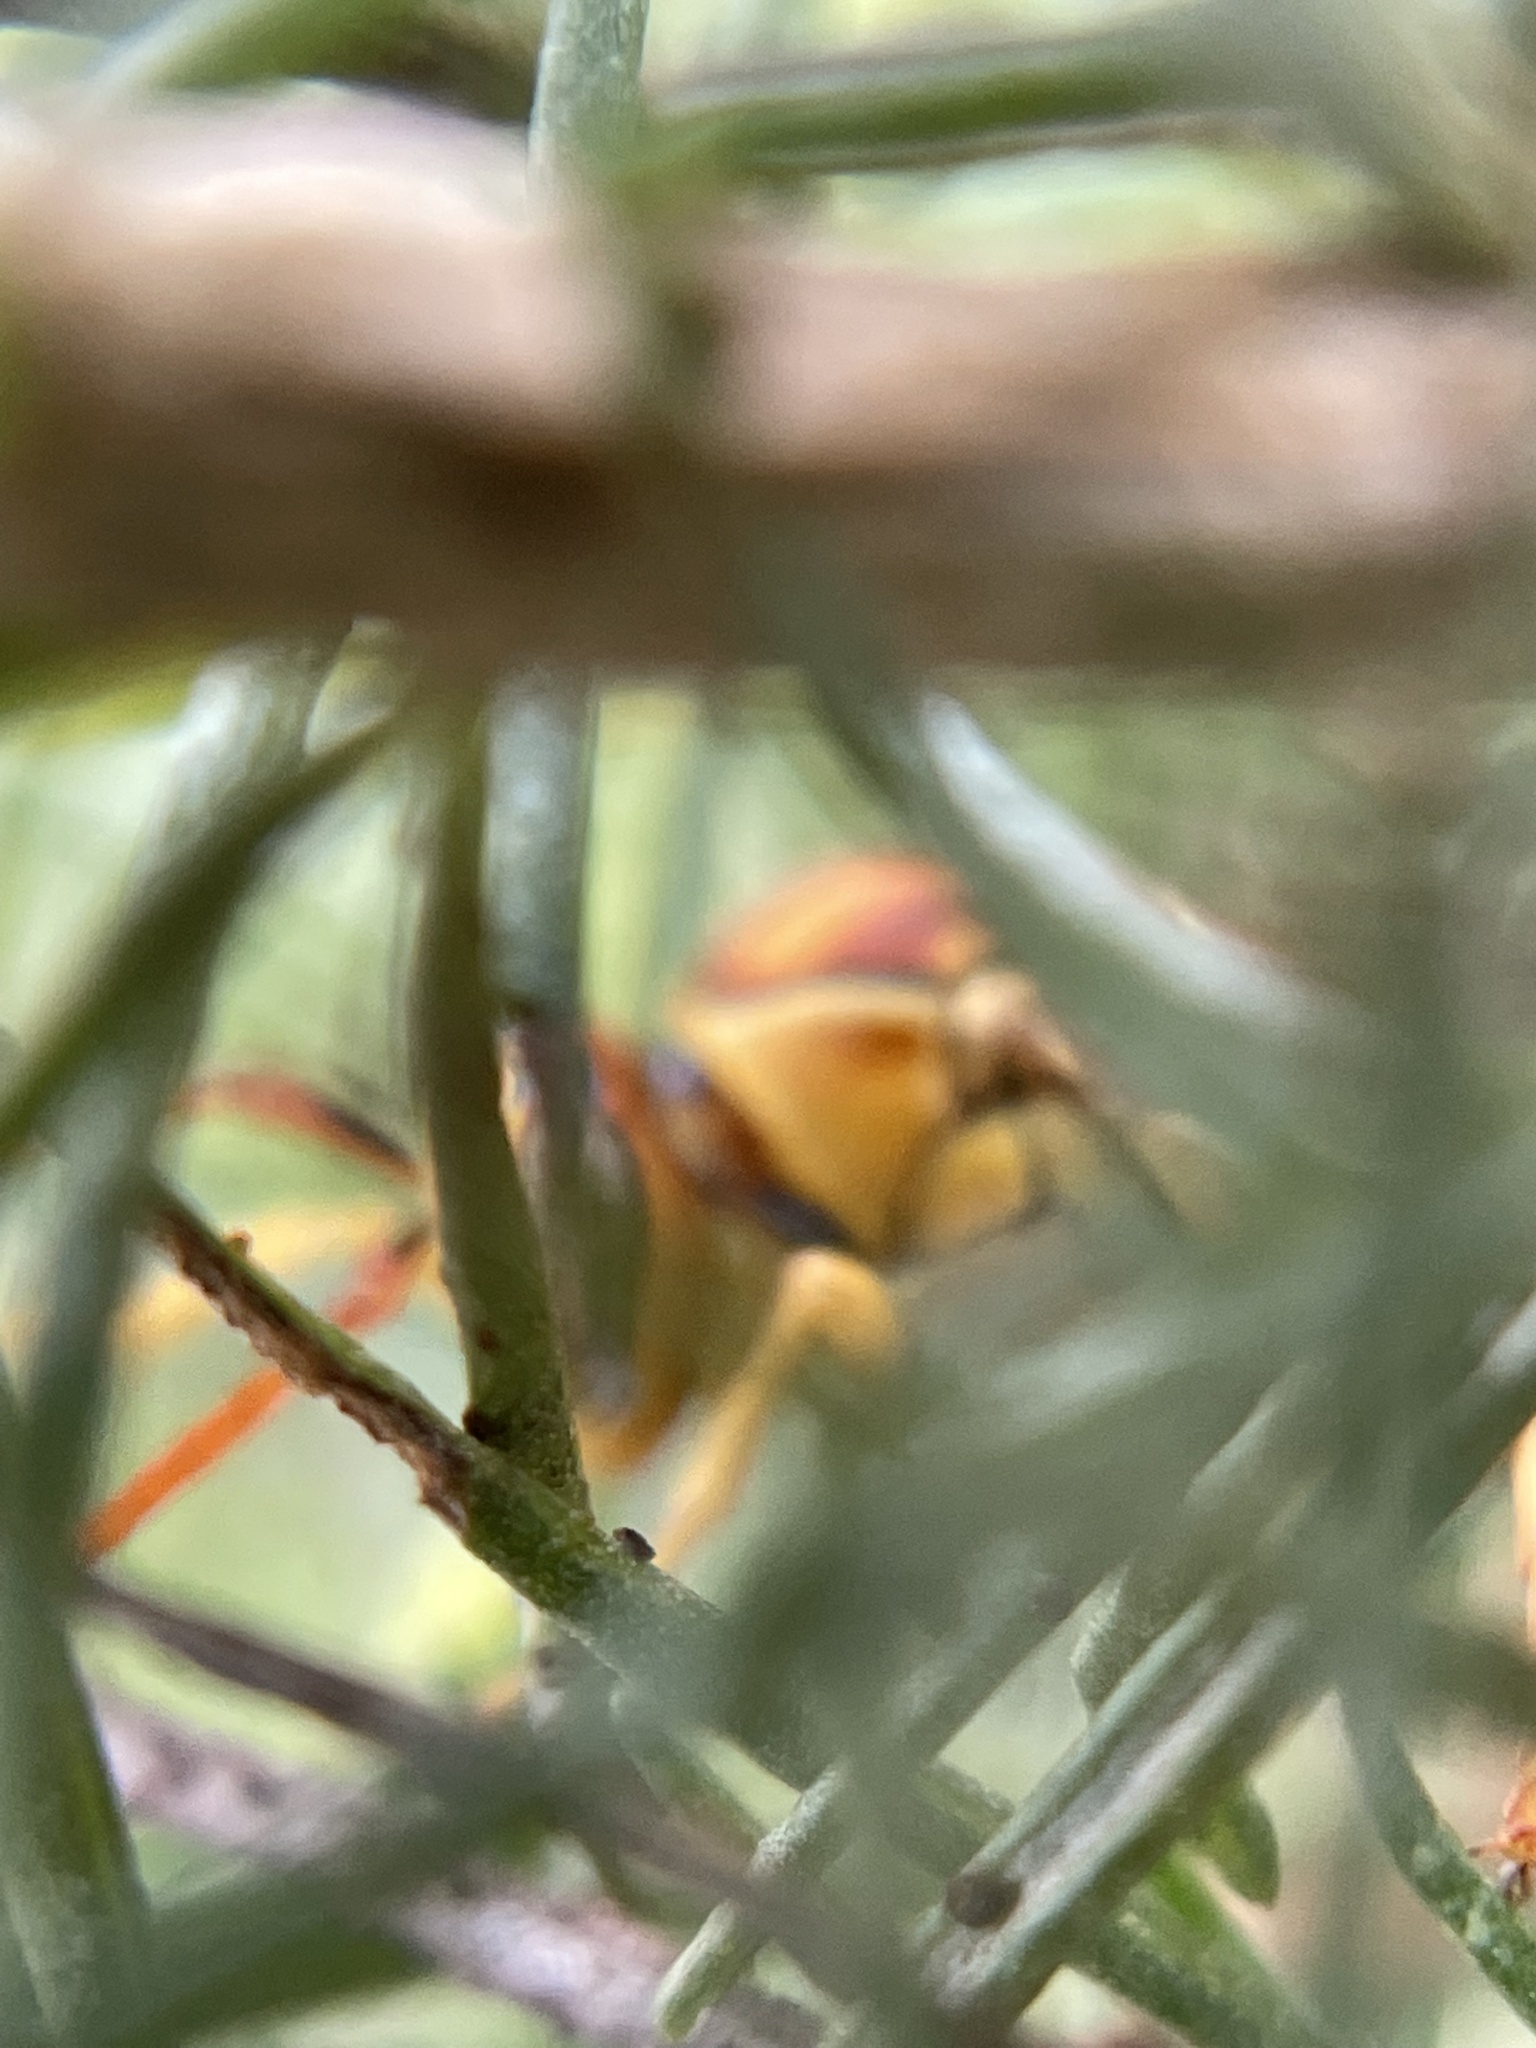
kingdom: Animalia
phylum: Arthropoda
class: Insecta
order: Hymenoptera
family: Eumenidae
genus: Polistes
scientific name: Polistes flavus
